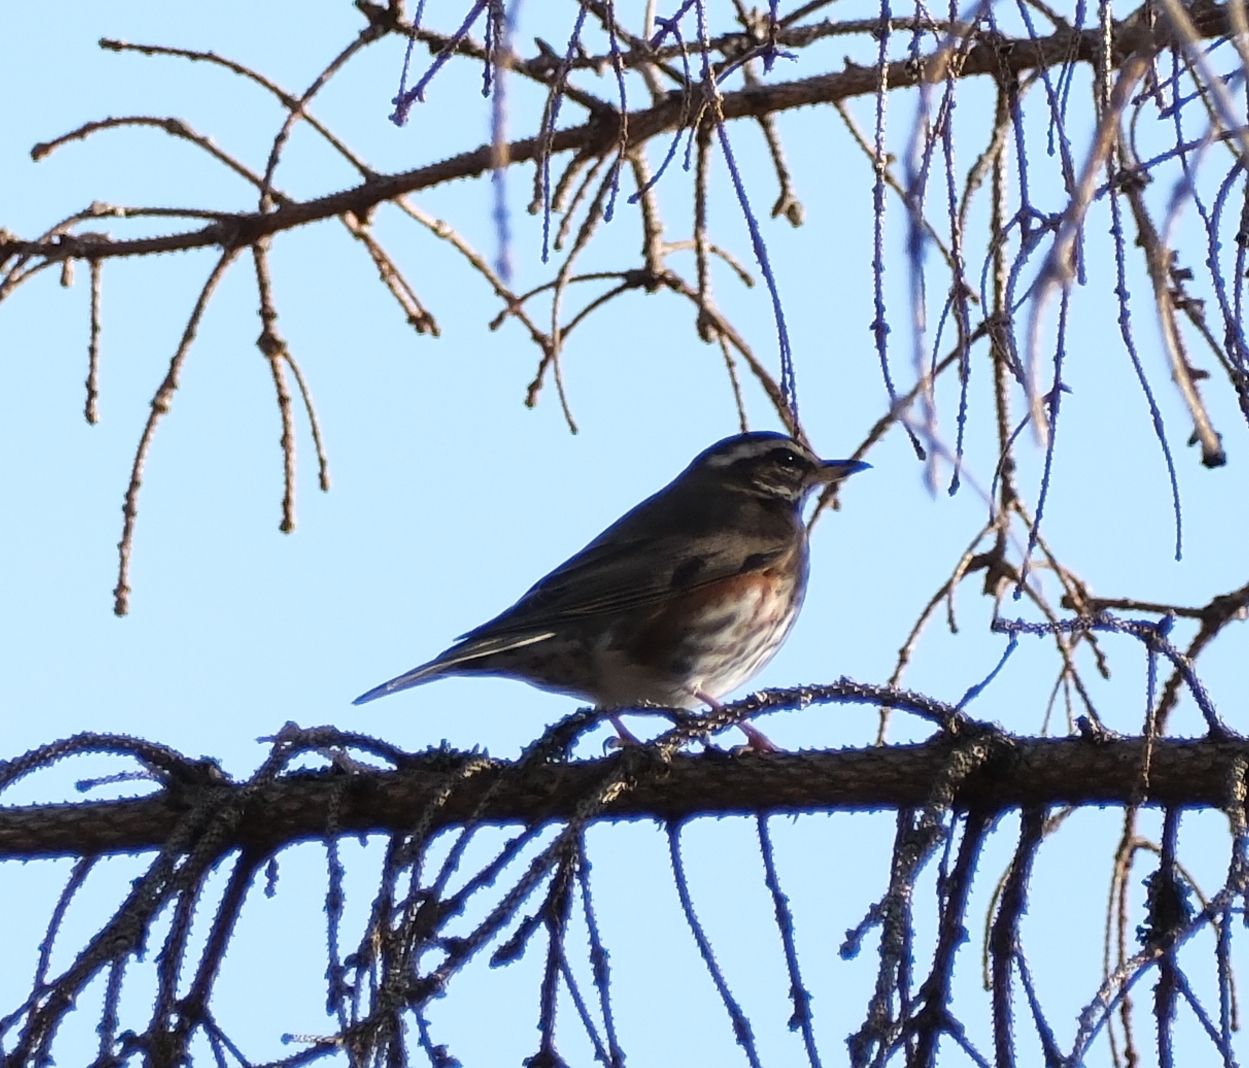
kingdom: Animalia
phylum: Chordata
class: Aves
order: Passeriformes
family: Turdidae
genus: Turdus
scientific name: Turdus iliacus
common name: Redwing
